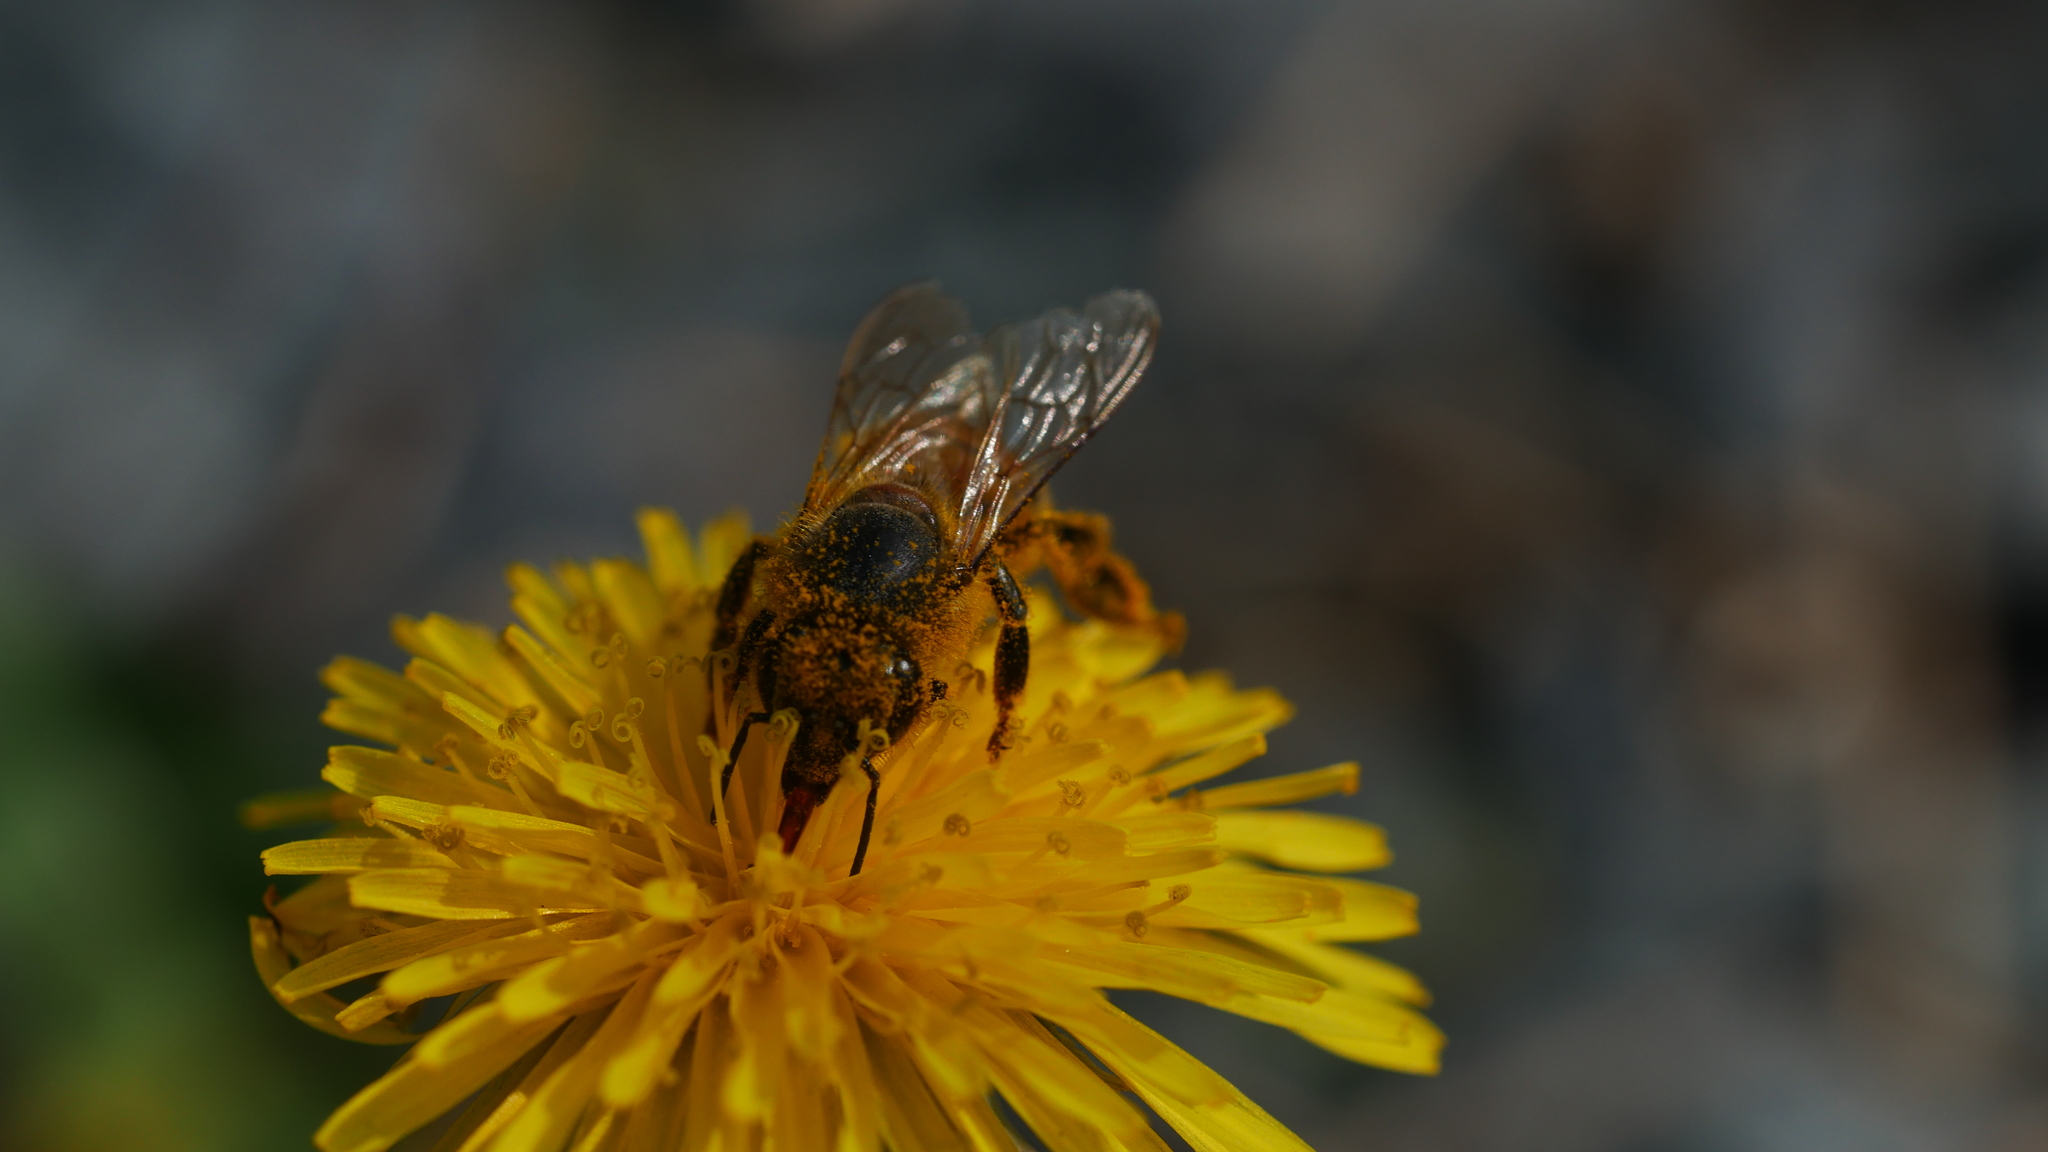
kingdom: Animalia
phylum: Arthropoda
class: Insecta
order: Hymenoptera
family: Apidae
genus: Apis
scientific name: Apis mellifera
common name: Honey bee
